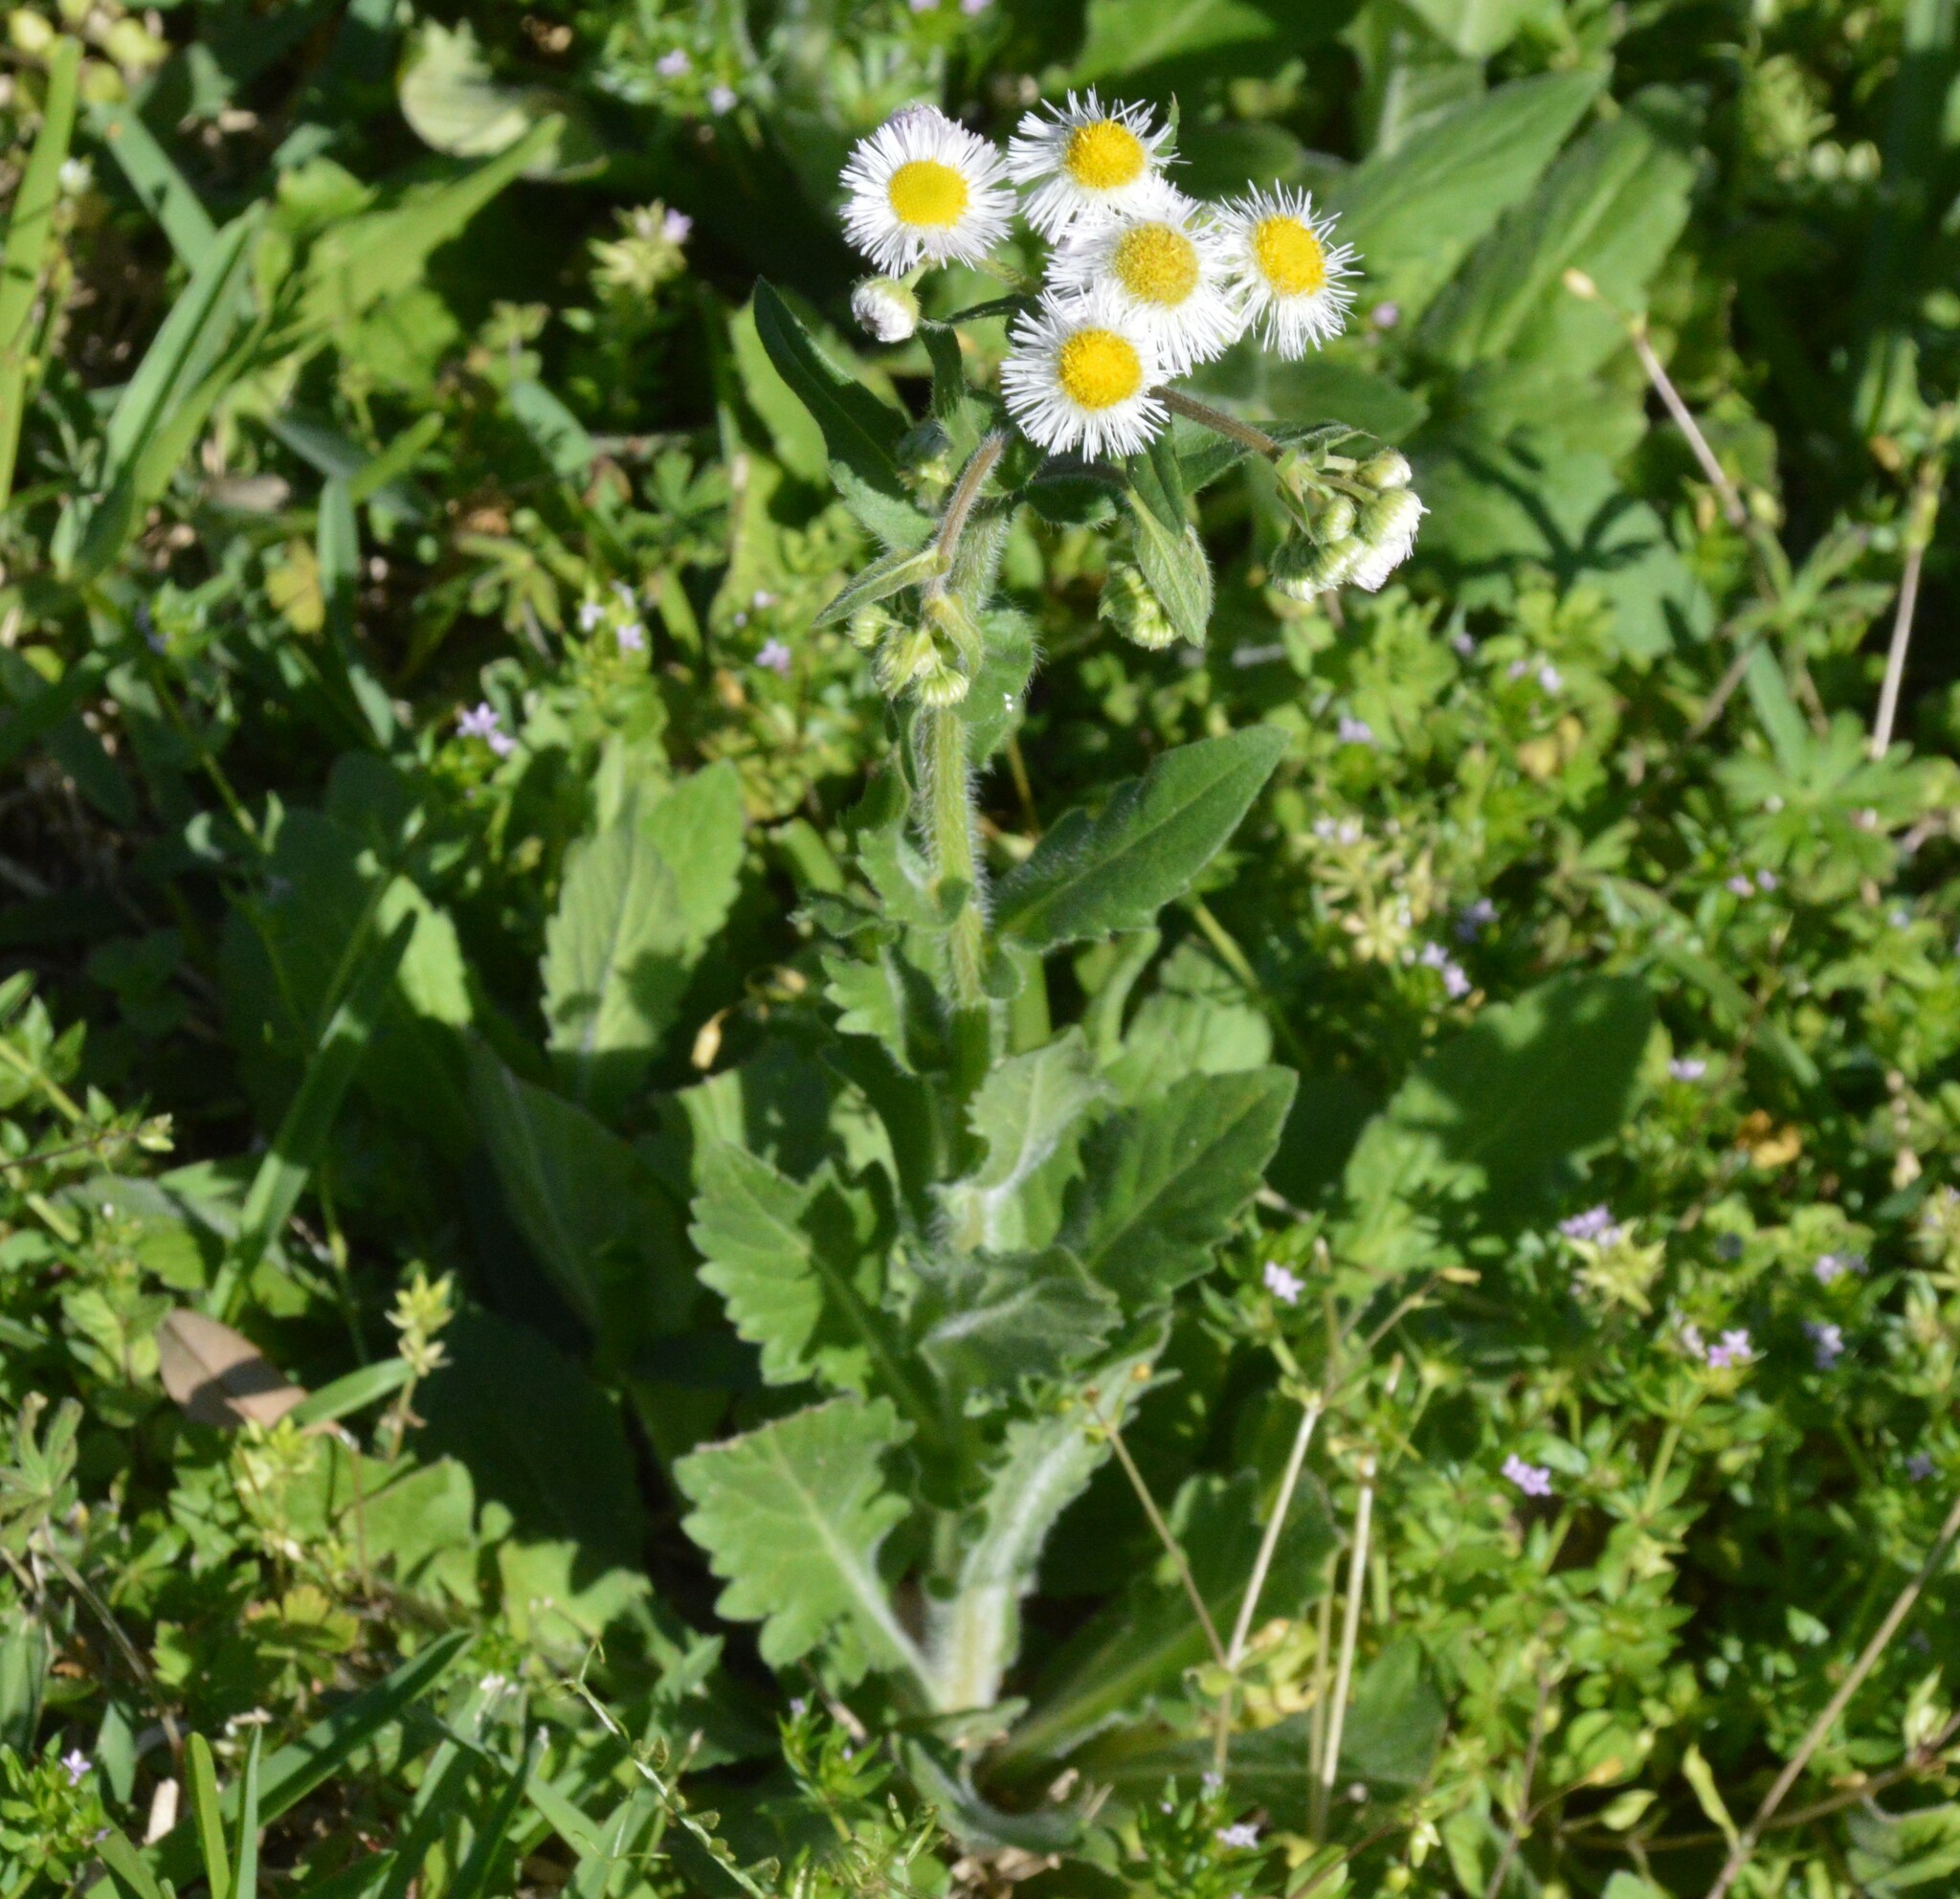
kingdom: Plantae
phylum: Tracheophyta
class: Magnoliopsida
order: Asterales
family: Asteraceae
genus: Erigeron
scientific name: Erigeron philadelphicus
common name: Robin's-plantain
